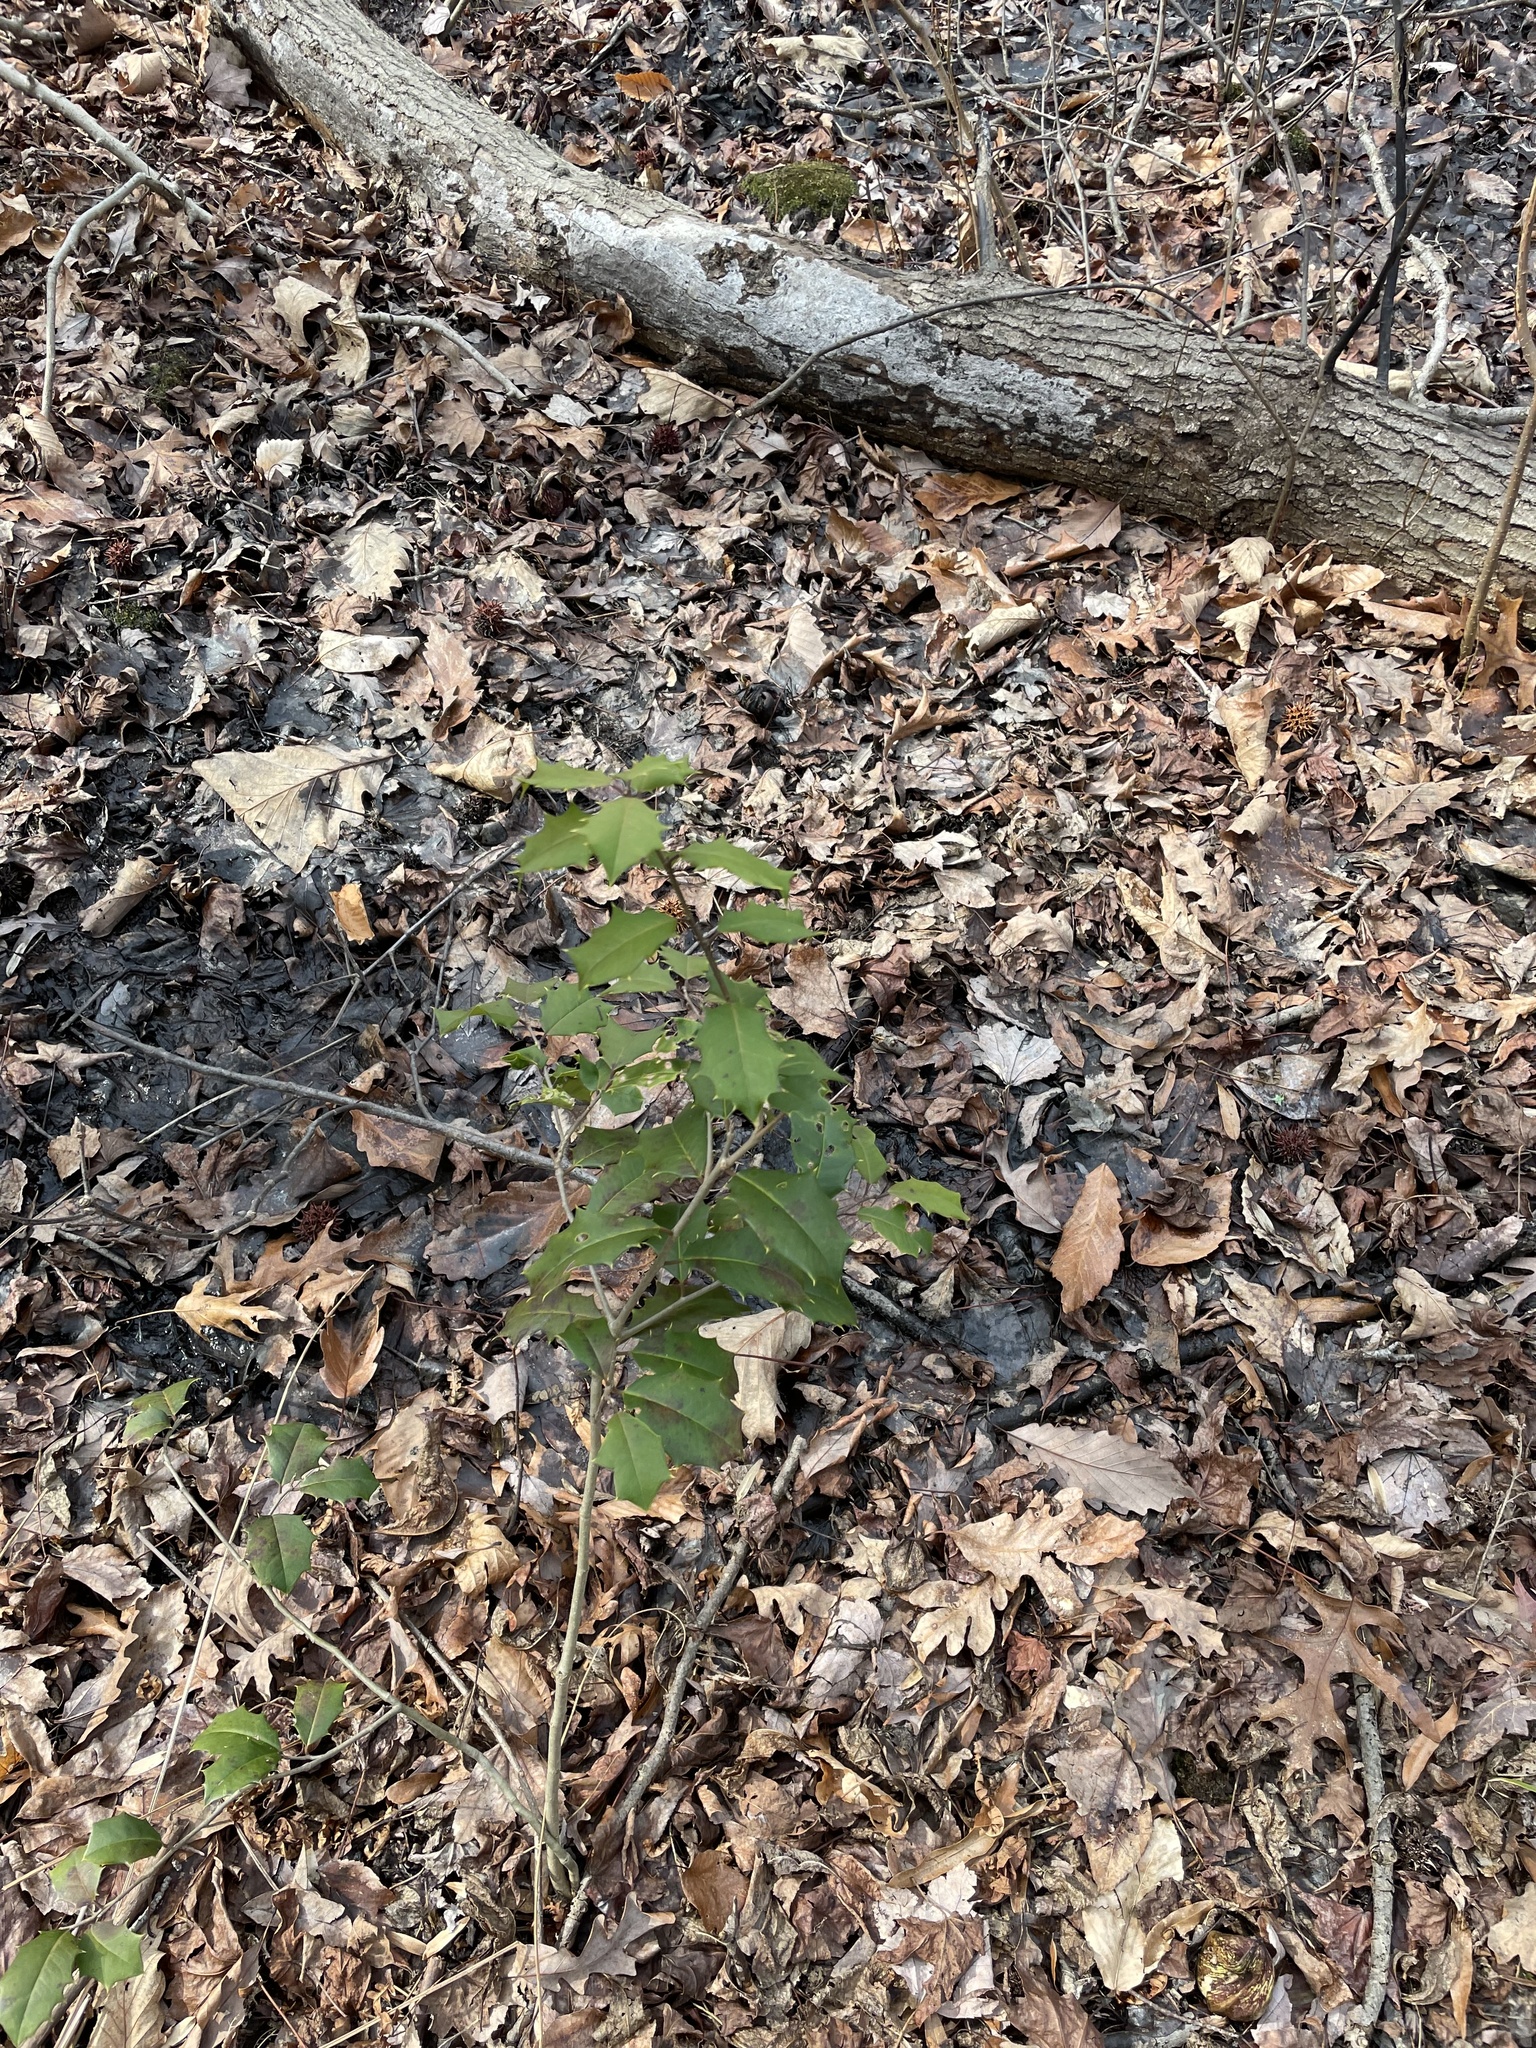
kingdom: Plantae
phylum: Tracheophyta
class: Magnoliopsida
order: Aquifoliales
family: Aquifoliaceae
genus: Ilex
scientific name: Ilex opaca
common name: American holly
